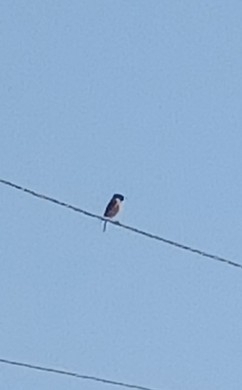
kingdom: Animalia
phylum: Chordata
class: Aves
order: Passeriformes
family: Muscicapidae
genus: Saxicola
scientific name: Saxicola maurus
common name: Siberian stonechat
